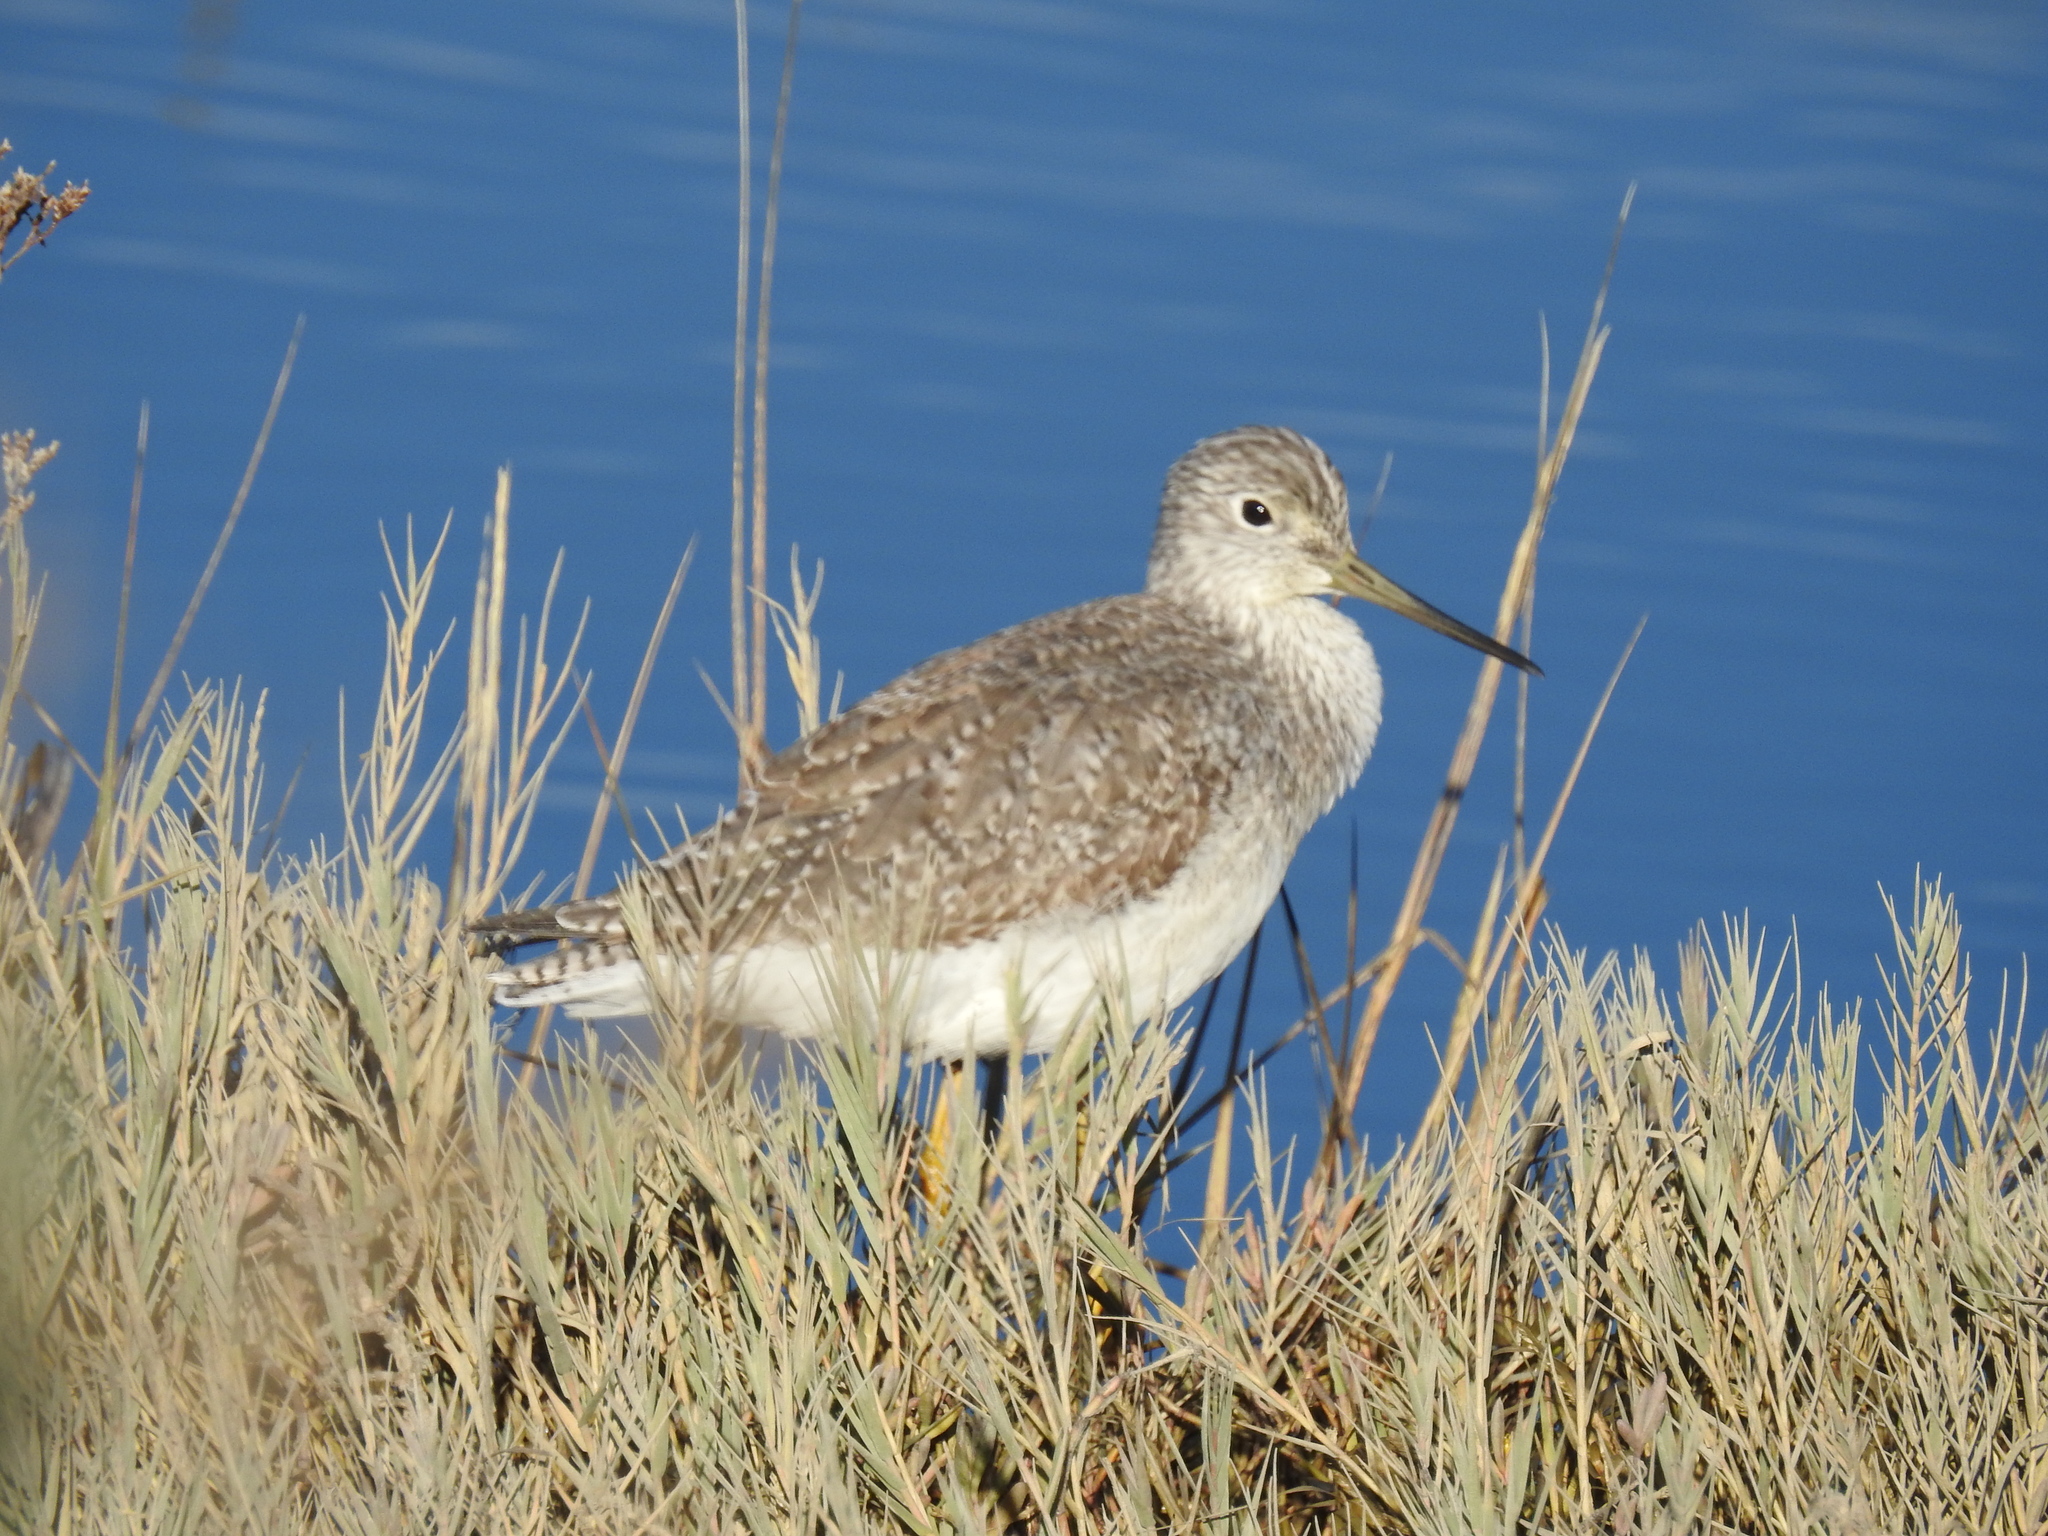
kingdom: Animalia
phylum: Chordata
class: Aves
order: Charadriiformes
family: Scolopacidae
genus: Tringa
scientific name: Tringa melanoleuca
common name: Greater yellowlegs
